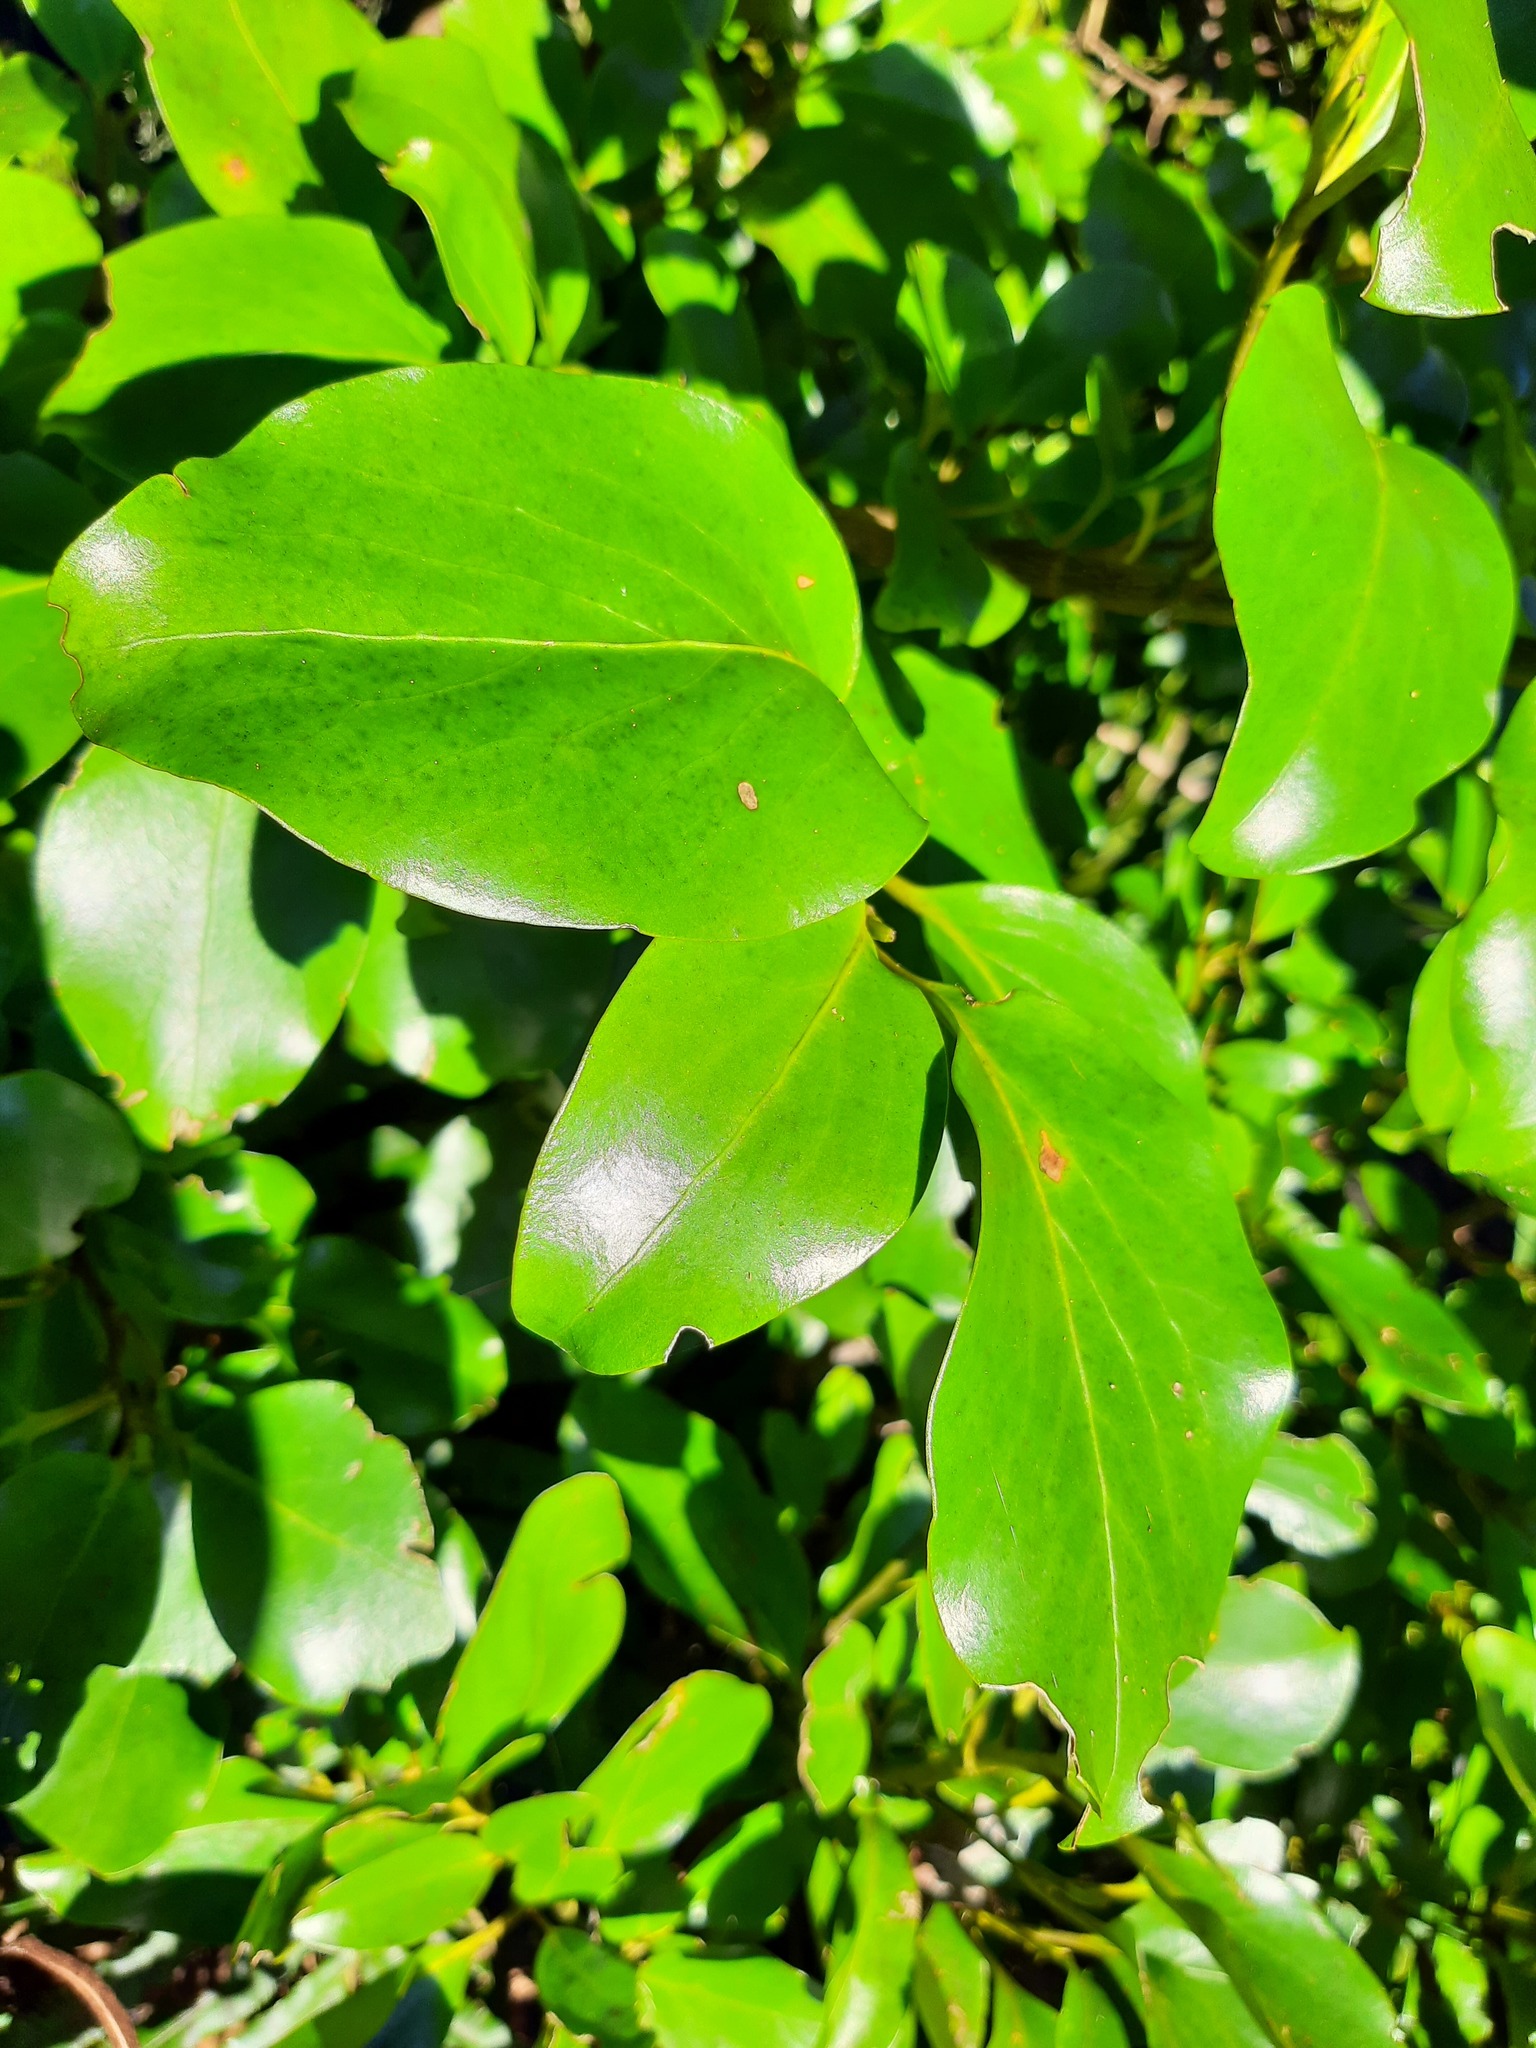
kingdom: Plantae
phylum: Tracheophyta
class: Magnoliopsida
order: Apiales
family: Griseliniaceae
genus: Griselinia
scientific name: Griselinia littoralis
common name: New zealand broadleaf
